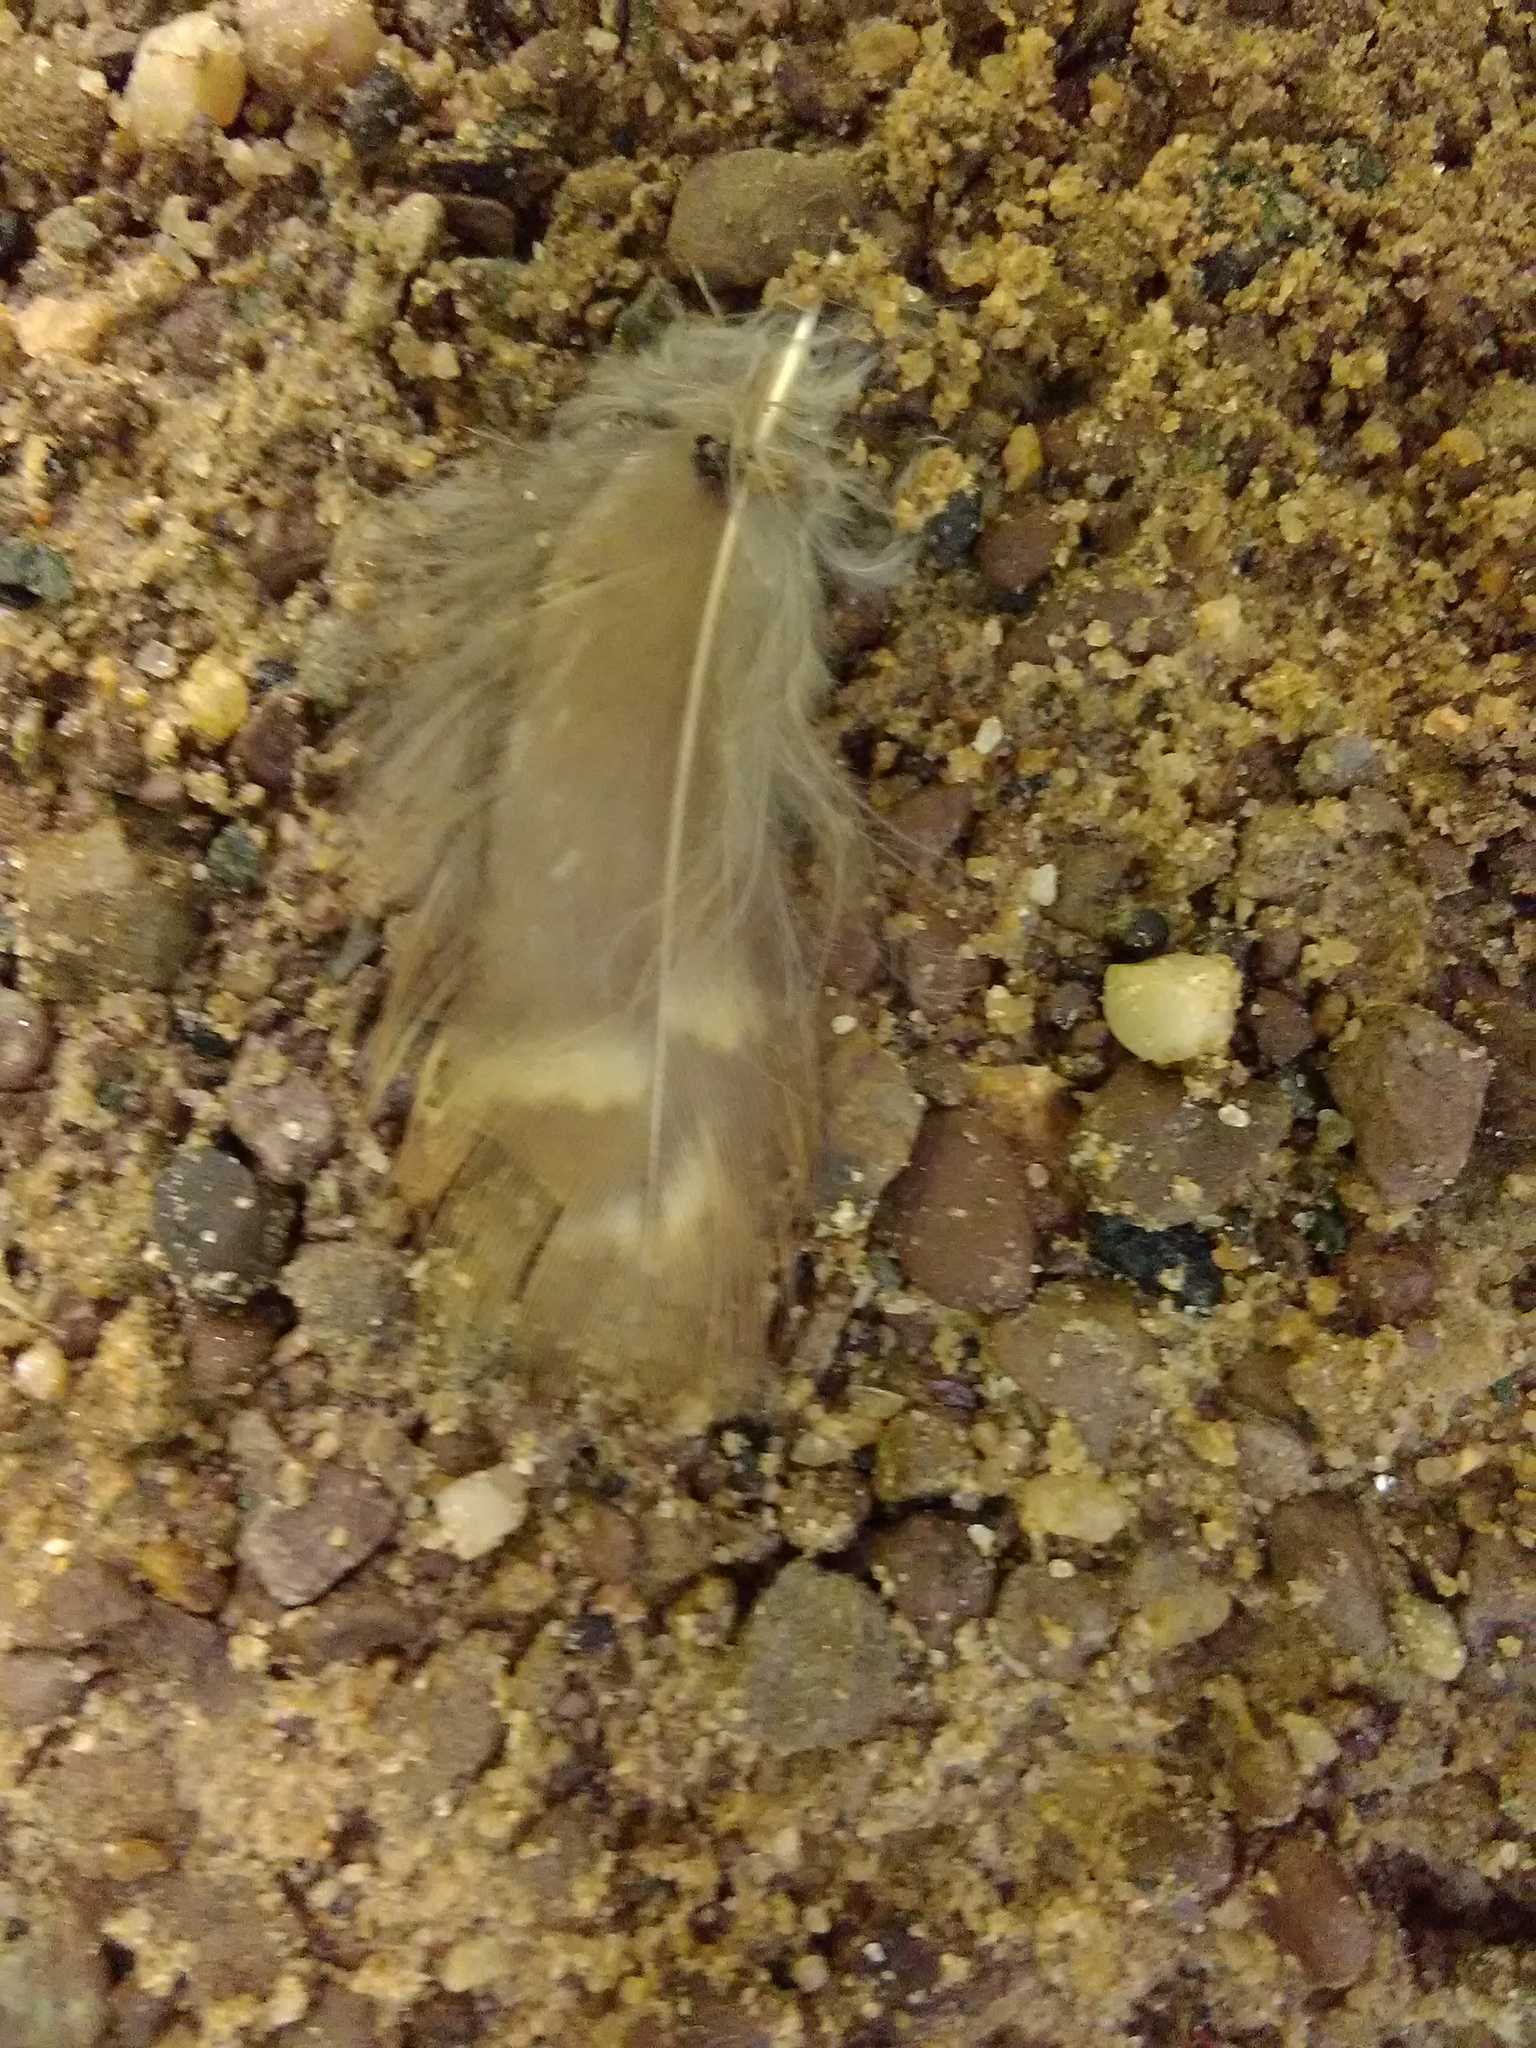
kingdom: Animalia
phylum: Chordata
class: Aves
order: Strigiformes
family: Strigidae
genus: Strix
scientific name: Strix varia
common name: Barred owl
